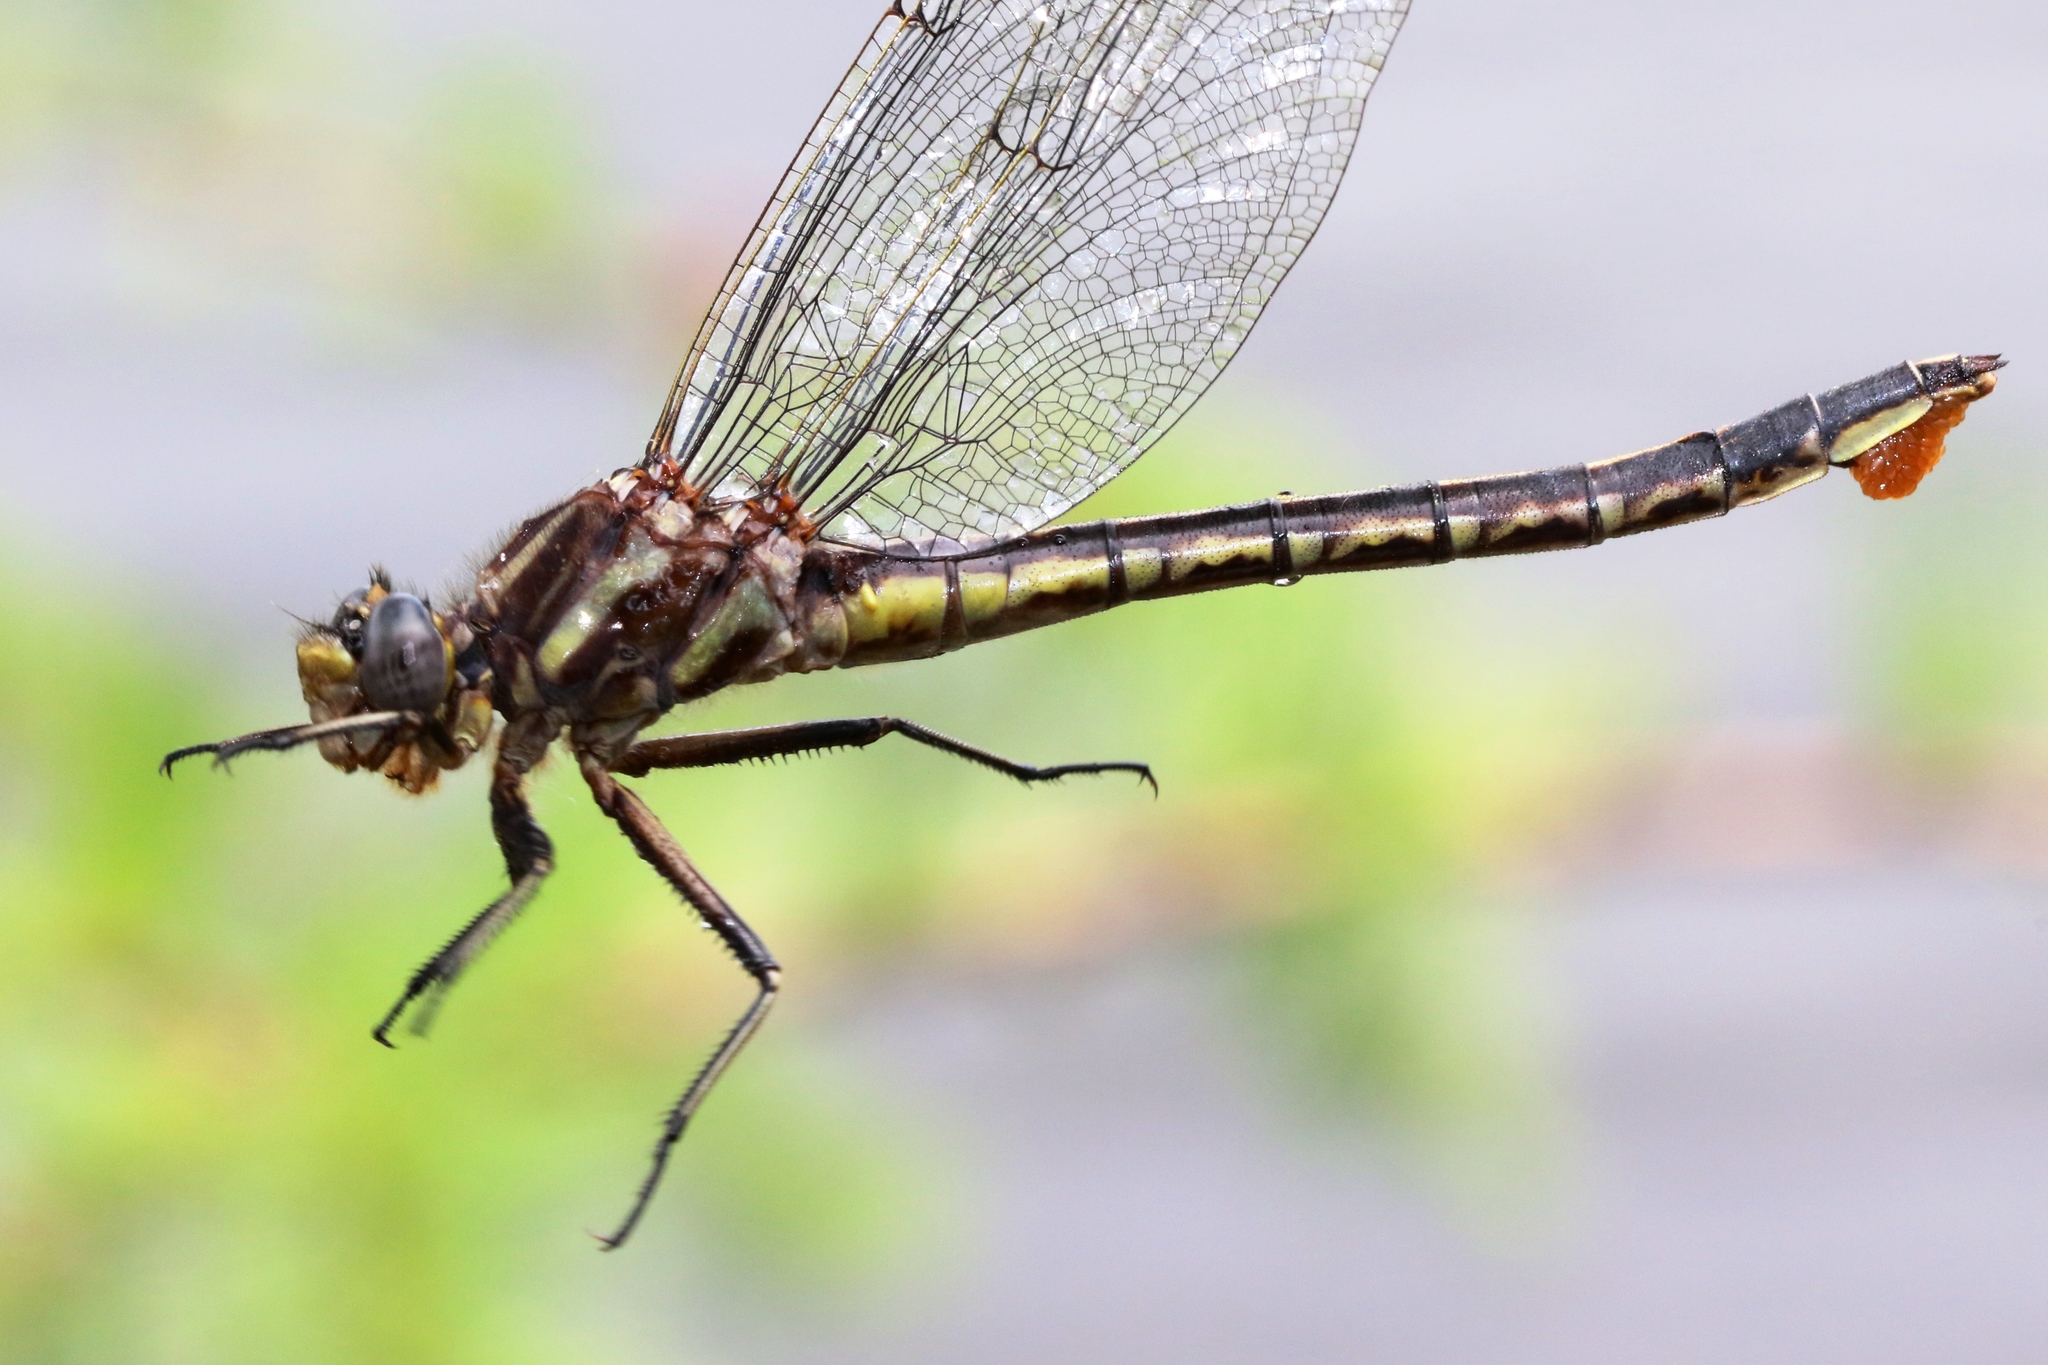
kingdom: Animalia
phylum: Arthropoda
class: Insecta
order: Odonata
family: Gomphidae
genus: Phanogomphus
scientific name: Phanogomphus spicatus
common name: Dusky clubtail
